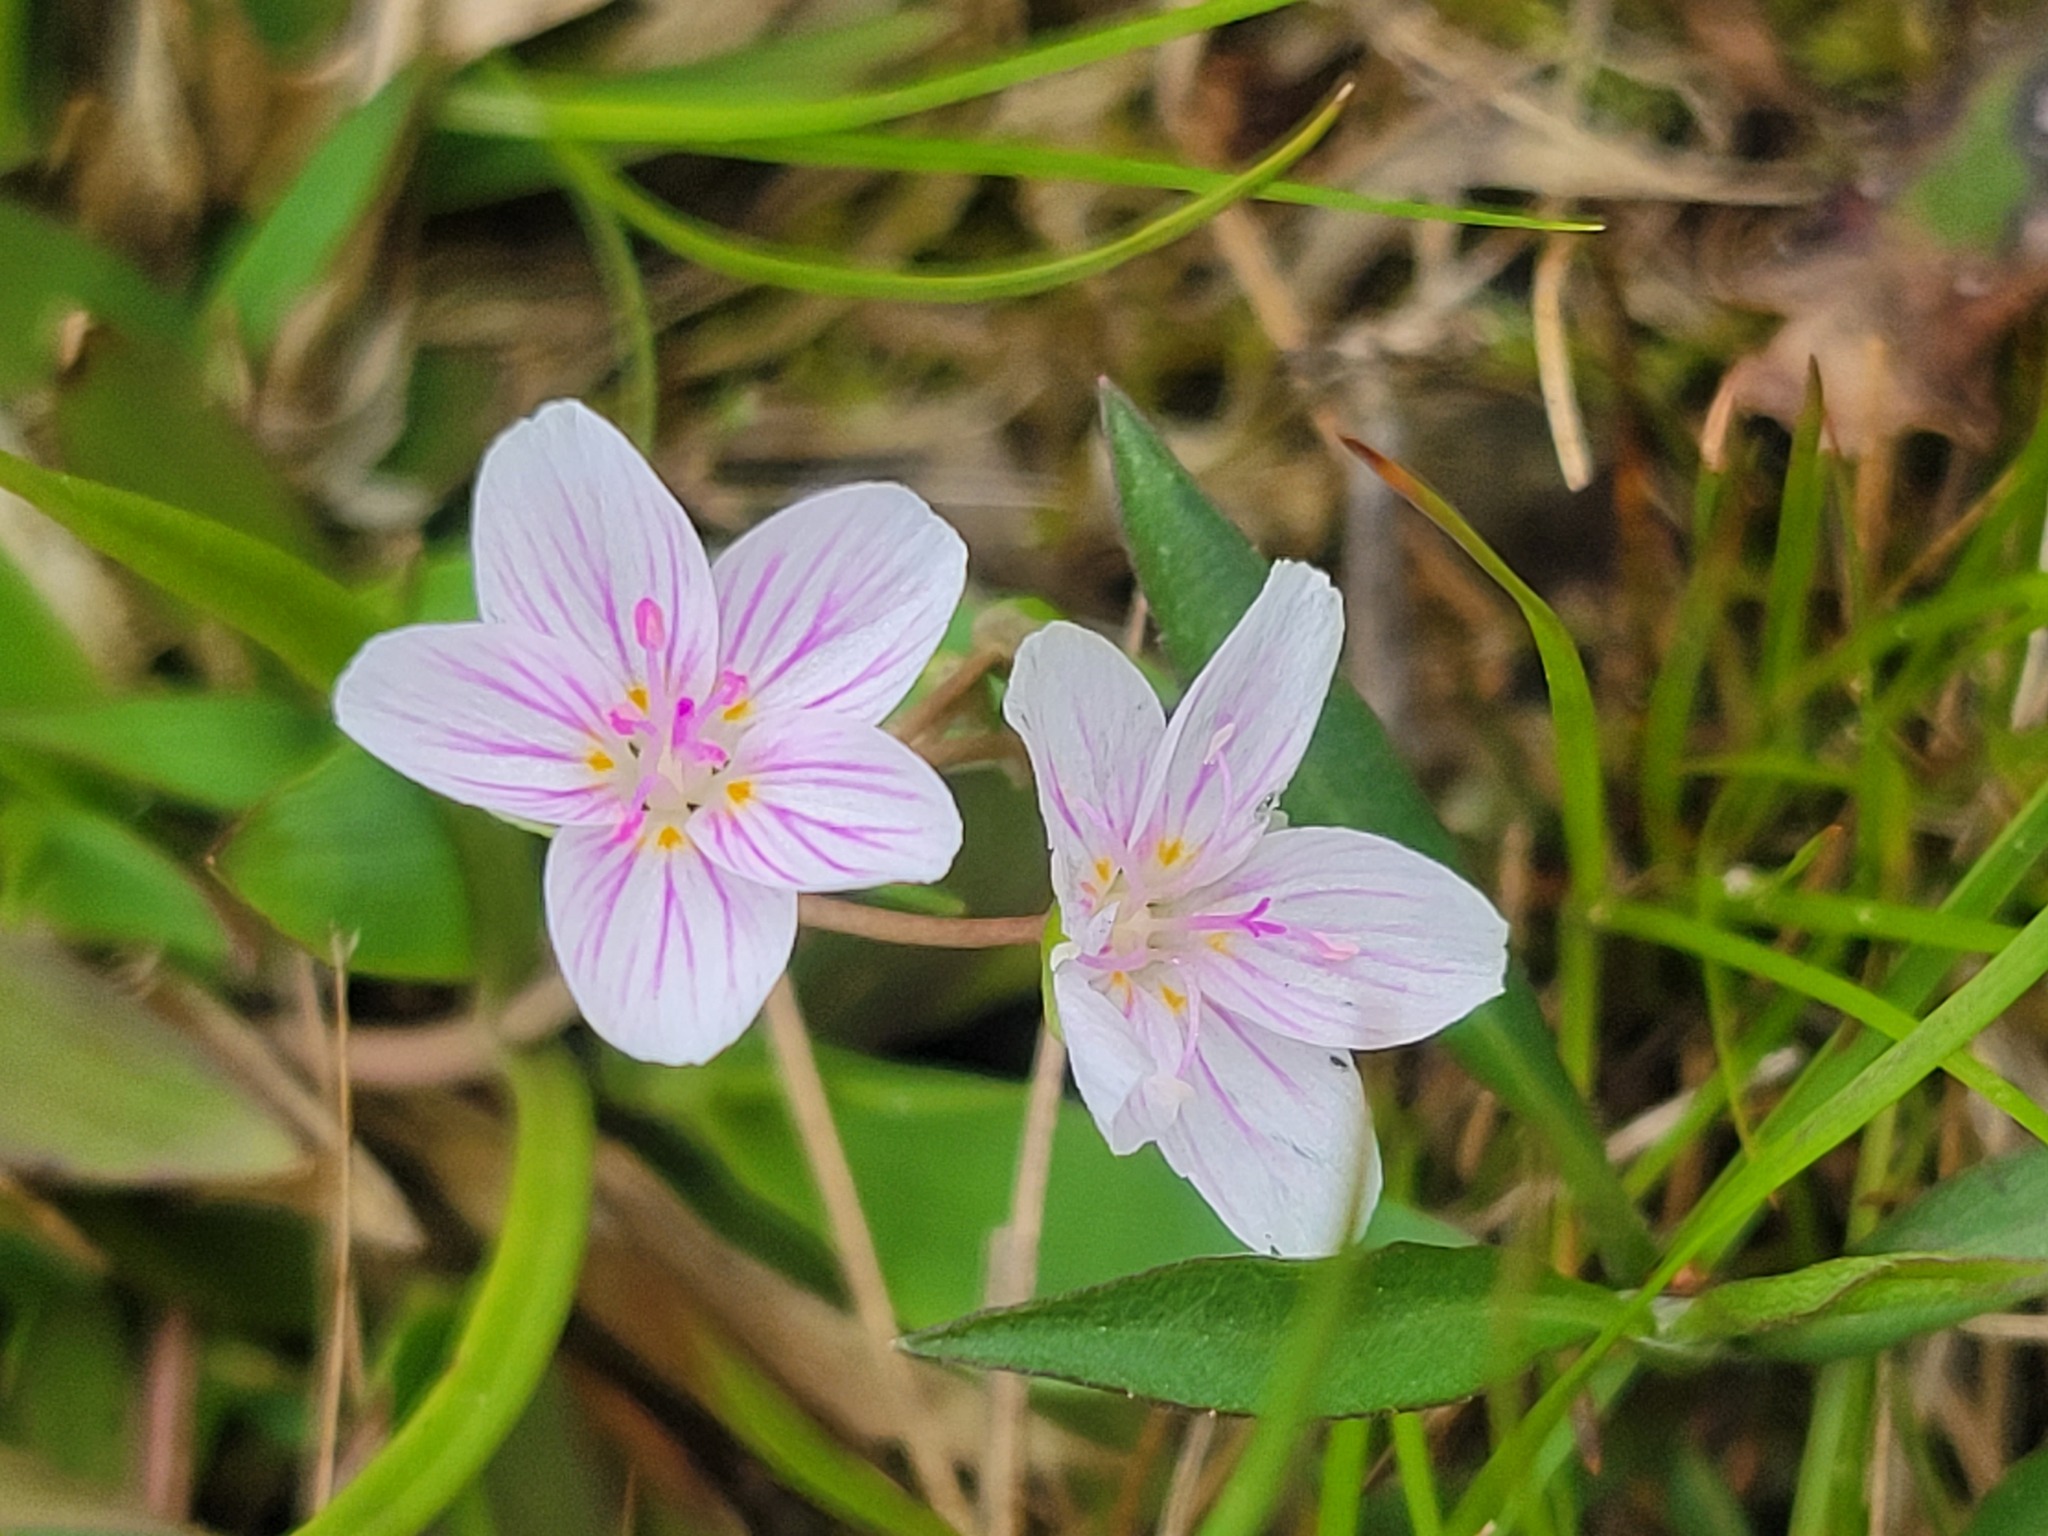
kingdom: Plantae
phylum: Tracheophyta
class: Magnoliopsida
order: Caryophyllales
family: Montiaceae
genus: Claytonia
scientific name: Claytonia virginica
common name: Virginia springbeauty
